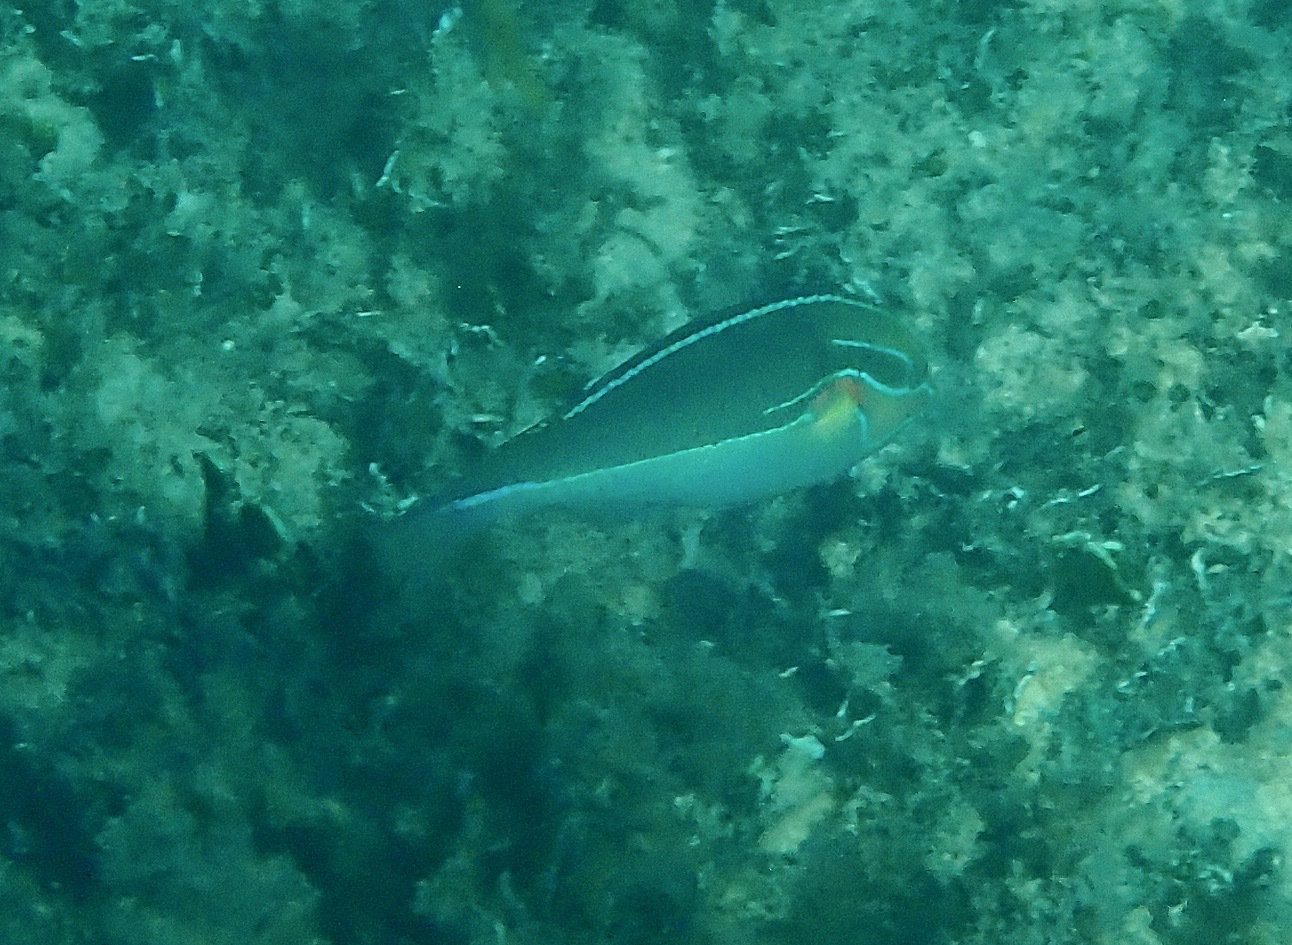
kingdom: Animalia
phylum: Chordata
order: Perciformes
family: Labridae
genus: Stethojulis
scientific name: Stethojulis bandanensis
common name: Red shoulder wrasse
